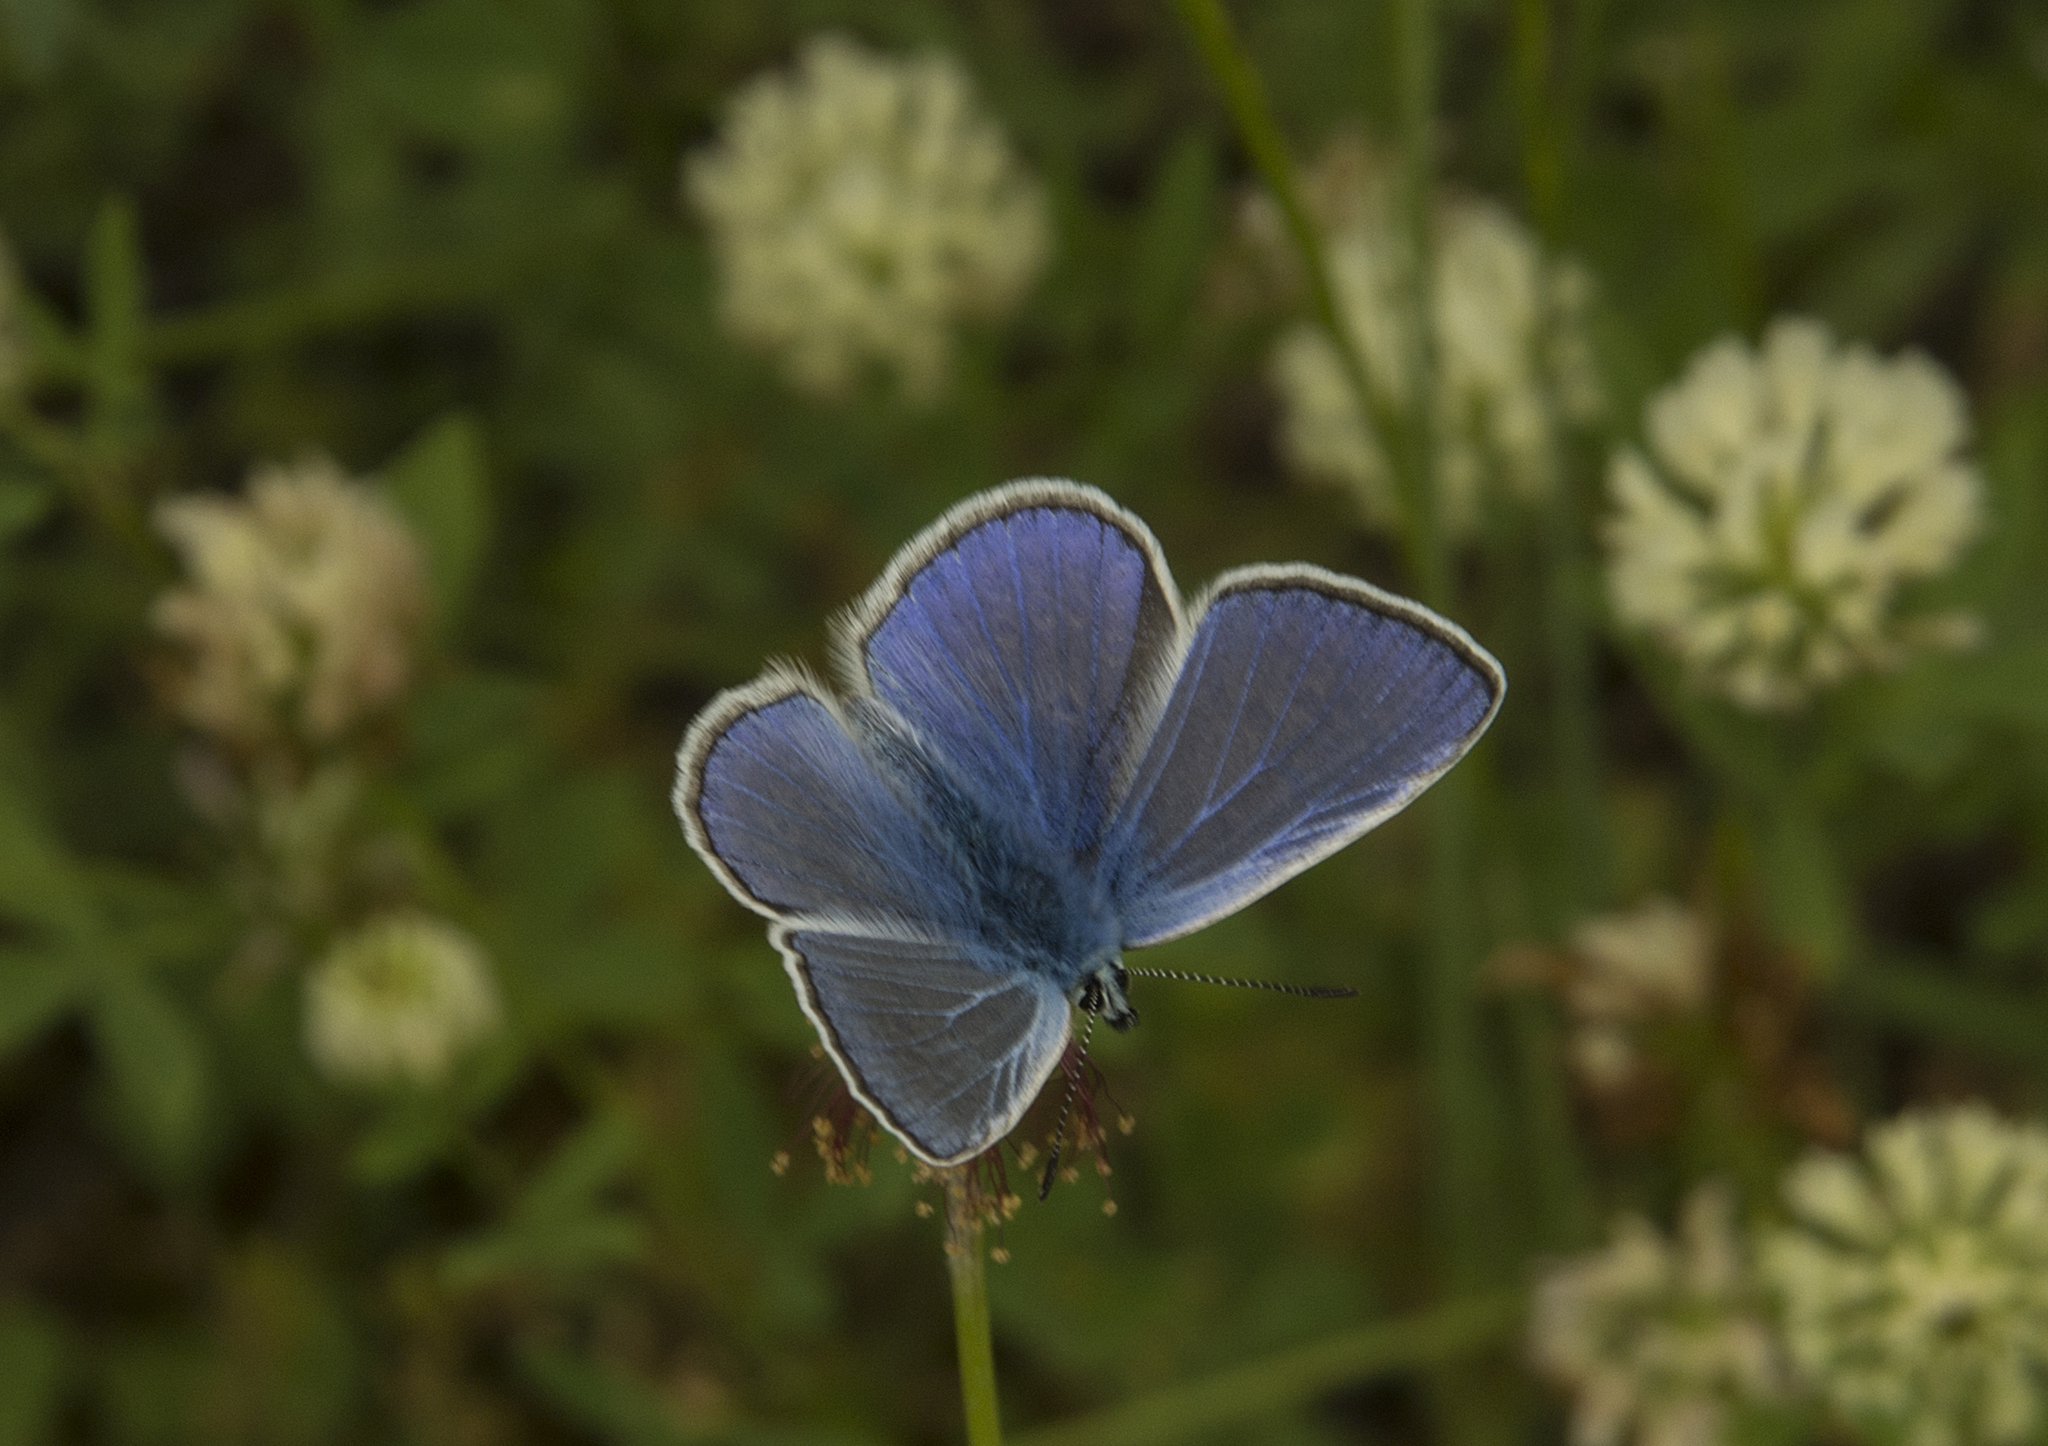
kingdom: Animalia
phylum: Arthropoda
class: Insecta
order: Lepidoptera
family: Lycaenidae
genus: Polyommatus
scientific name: Polyommatus icarus
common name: Common blue
